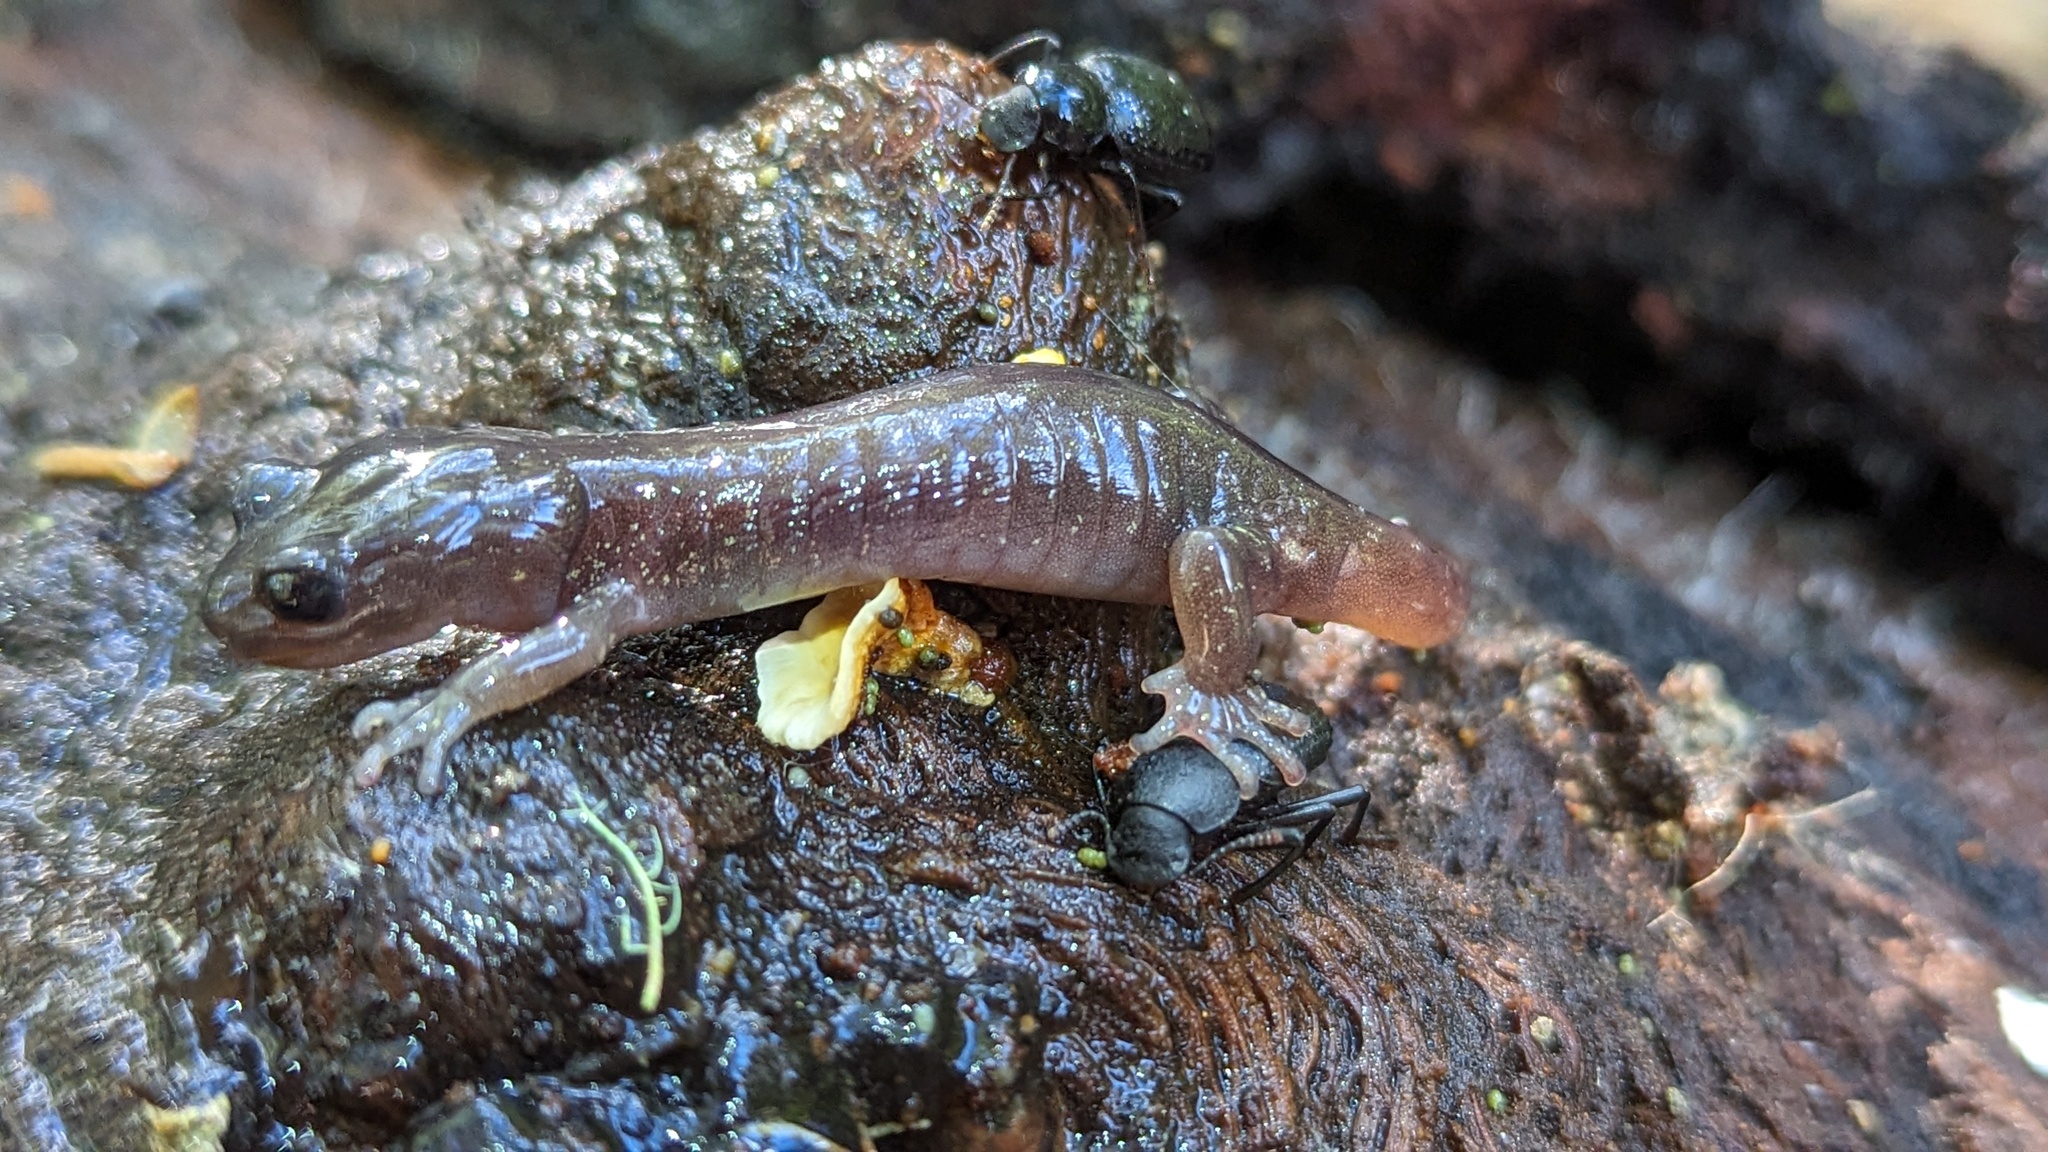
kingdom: Animalia
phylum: Chordata
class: Amphibia
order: Caudata
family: Plethodontidae
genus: Aneides
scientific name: Aneides lugubris
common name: Arboreal salamander
